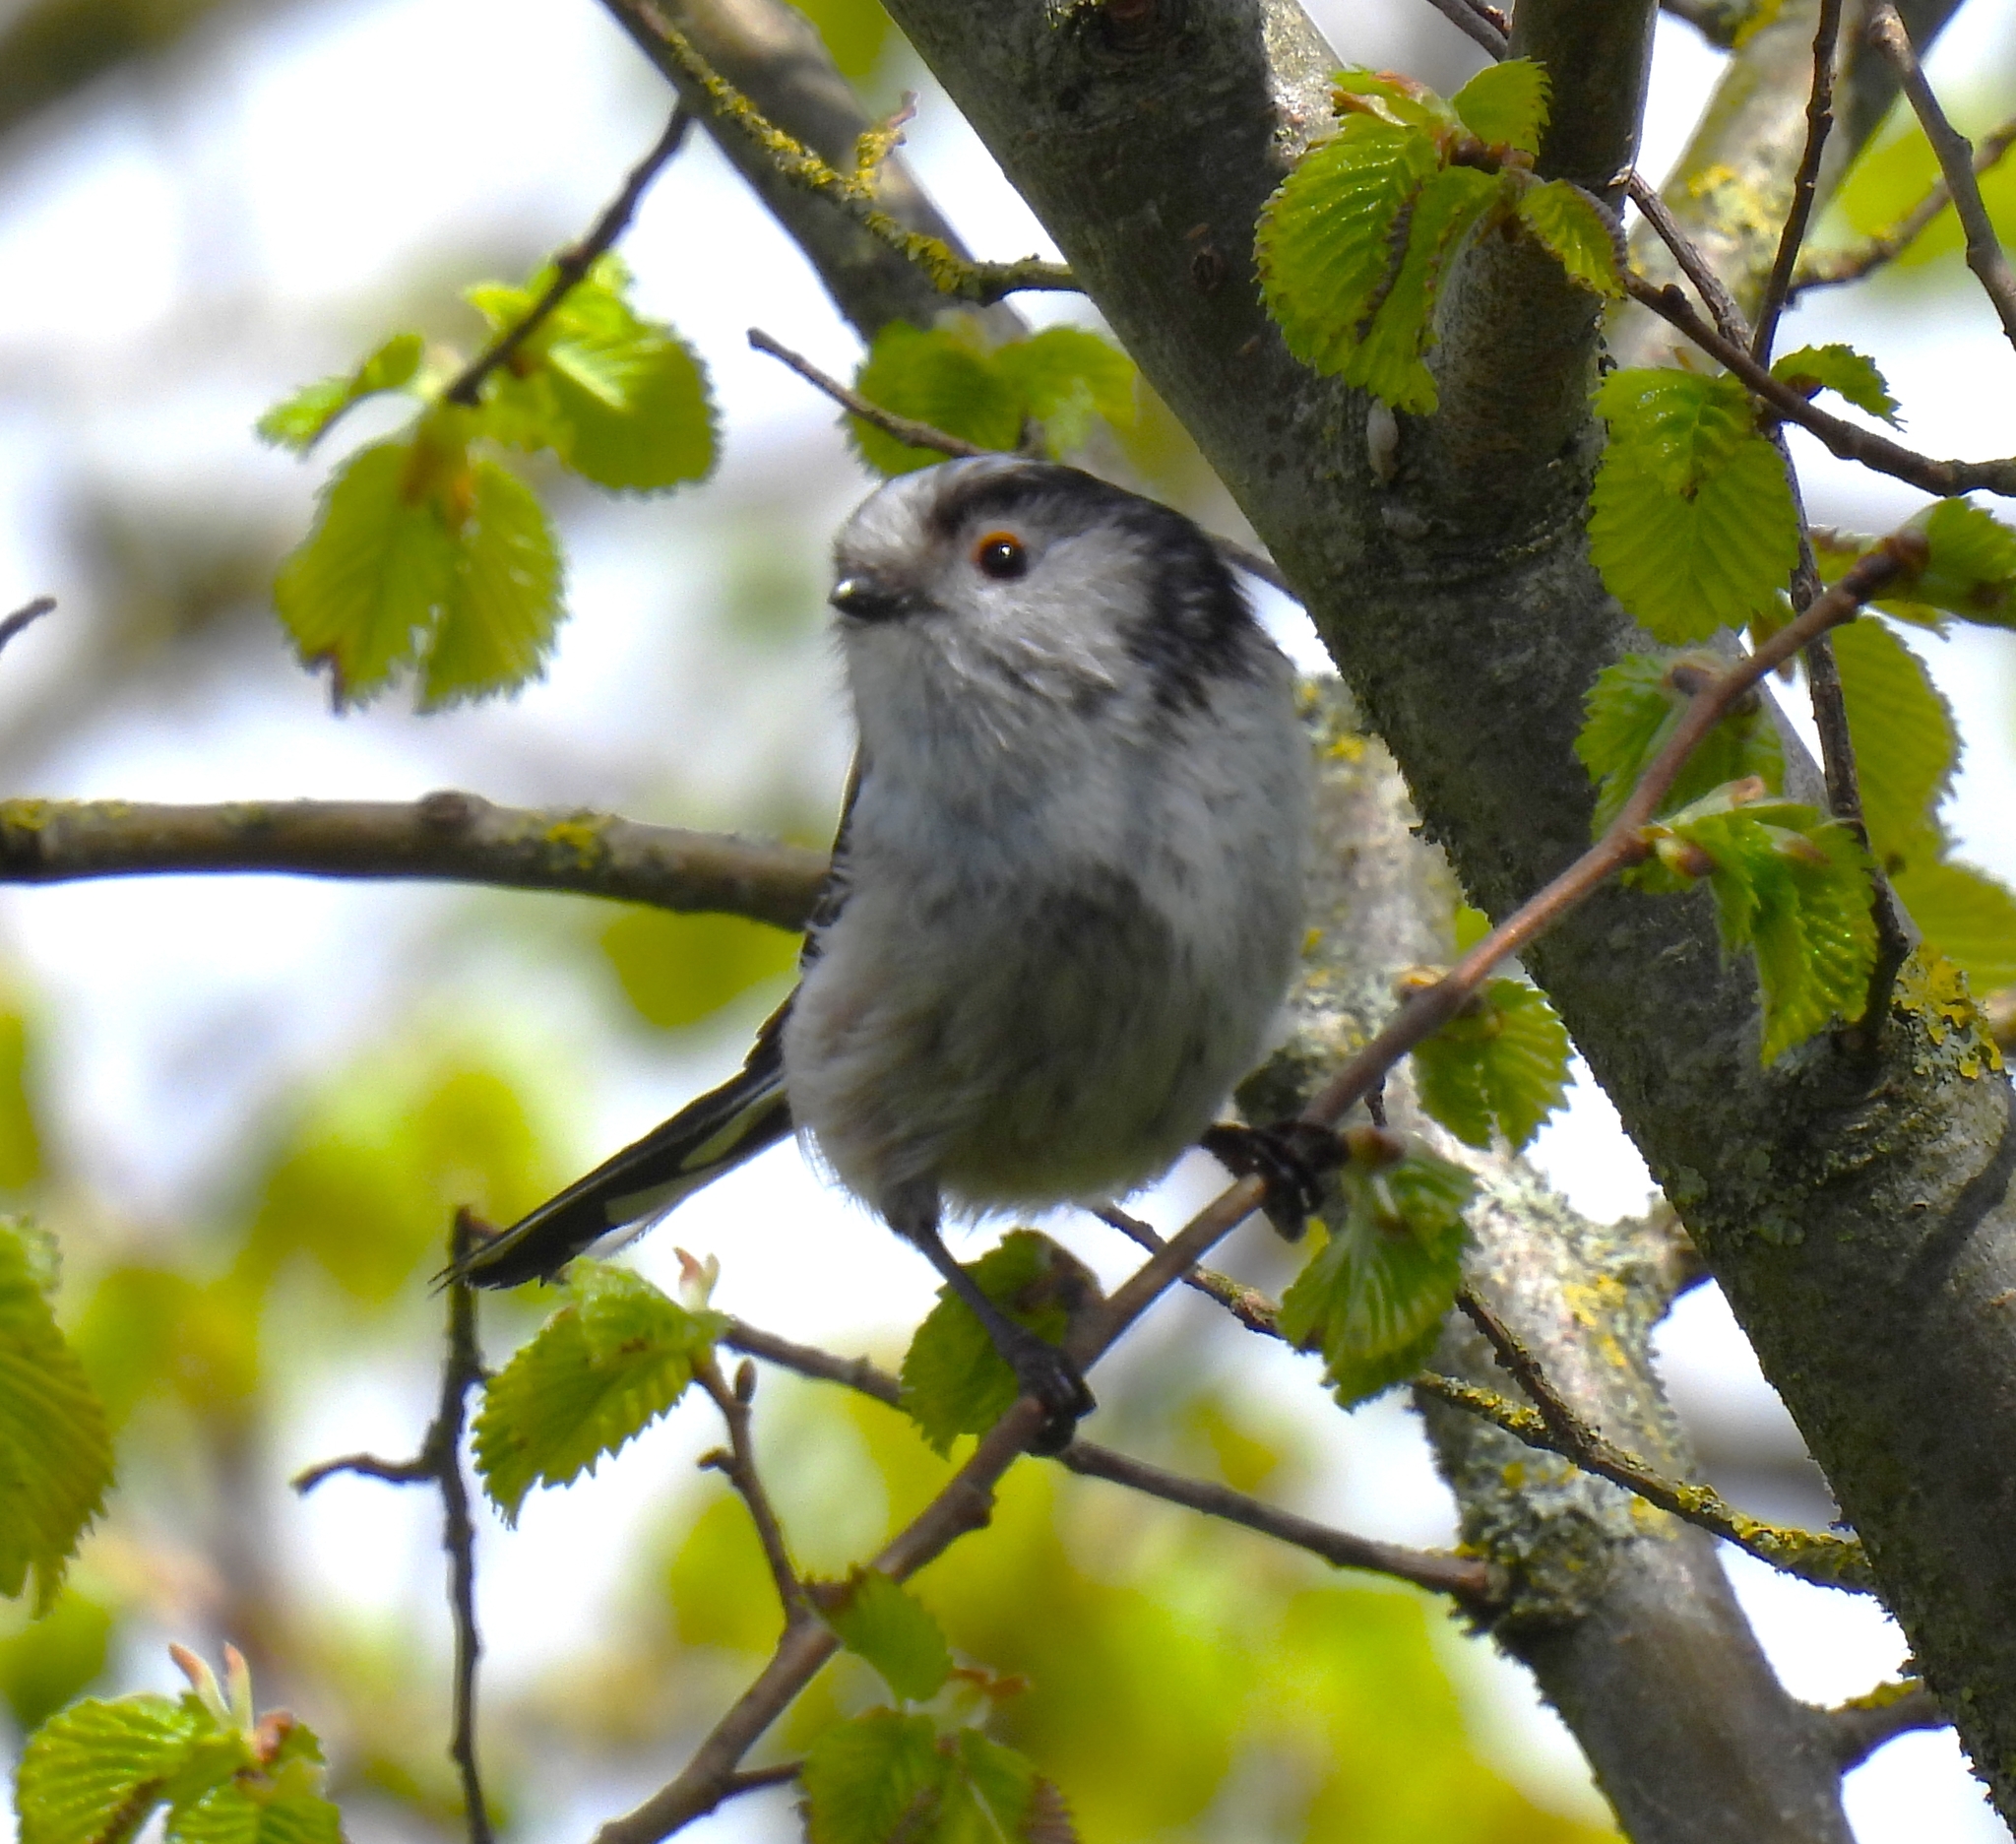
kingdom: Animalia
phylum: Chordata
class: Aves
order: Passeriformes
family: Aegithalidae
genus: Aegithalos
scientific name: Aegithalos caudatus
